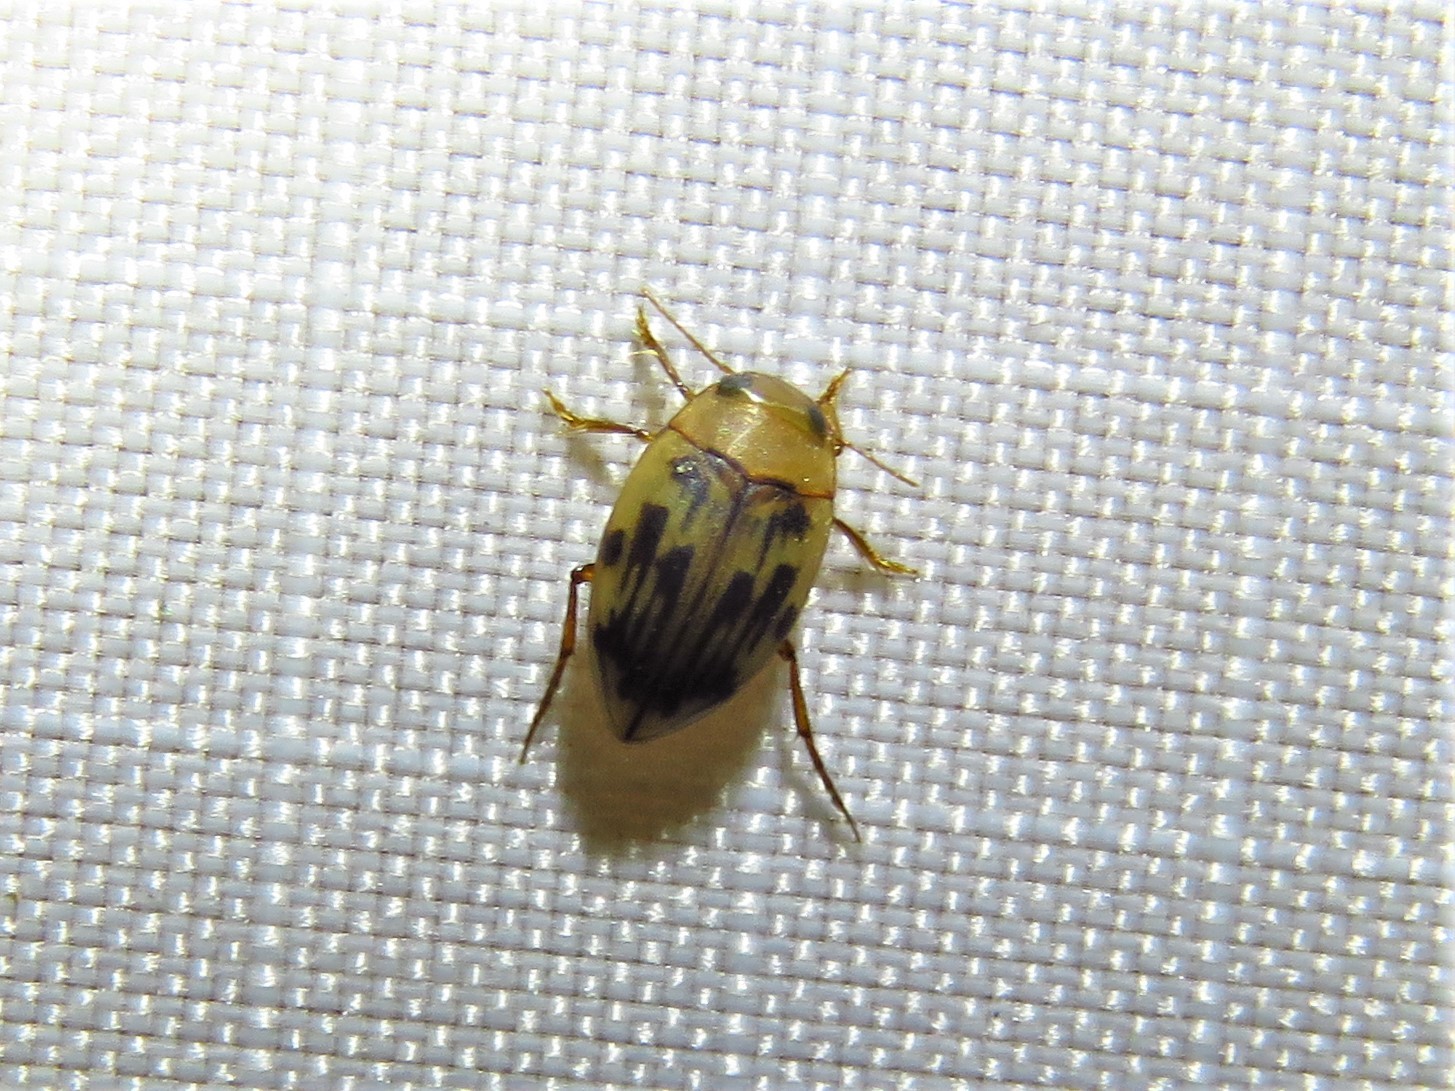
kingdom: Animalia
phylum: Arthropoda
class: Insecta
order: Coleoptera
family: Dytiscidae
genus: Neoporus
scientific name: Neoporus dimidiatus
